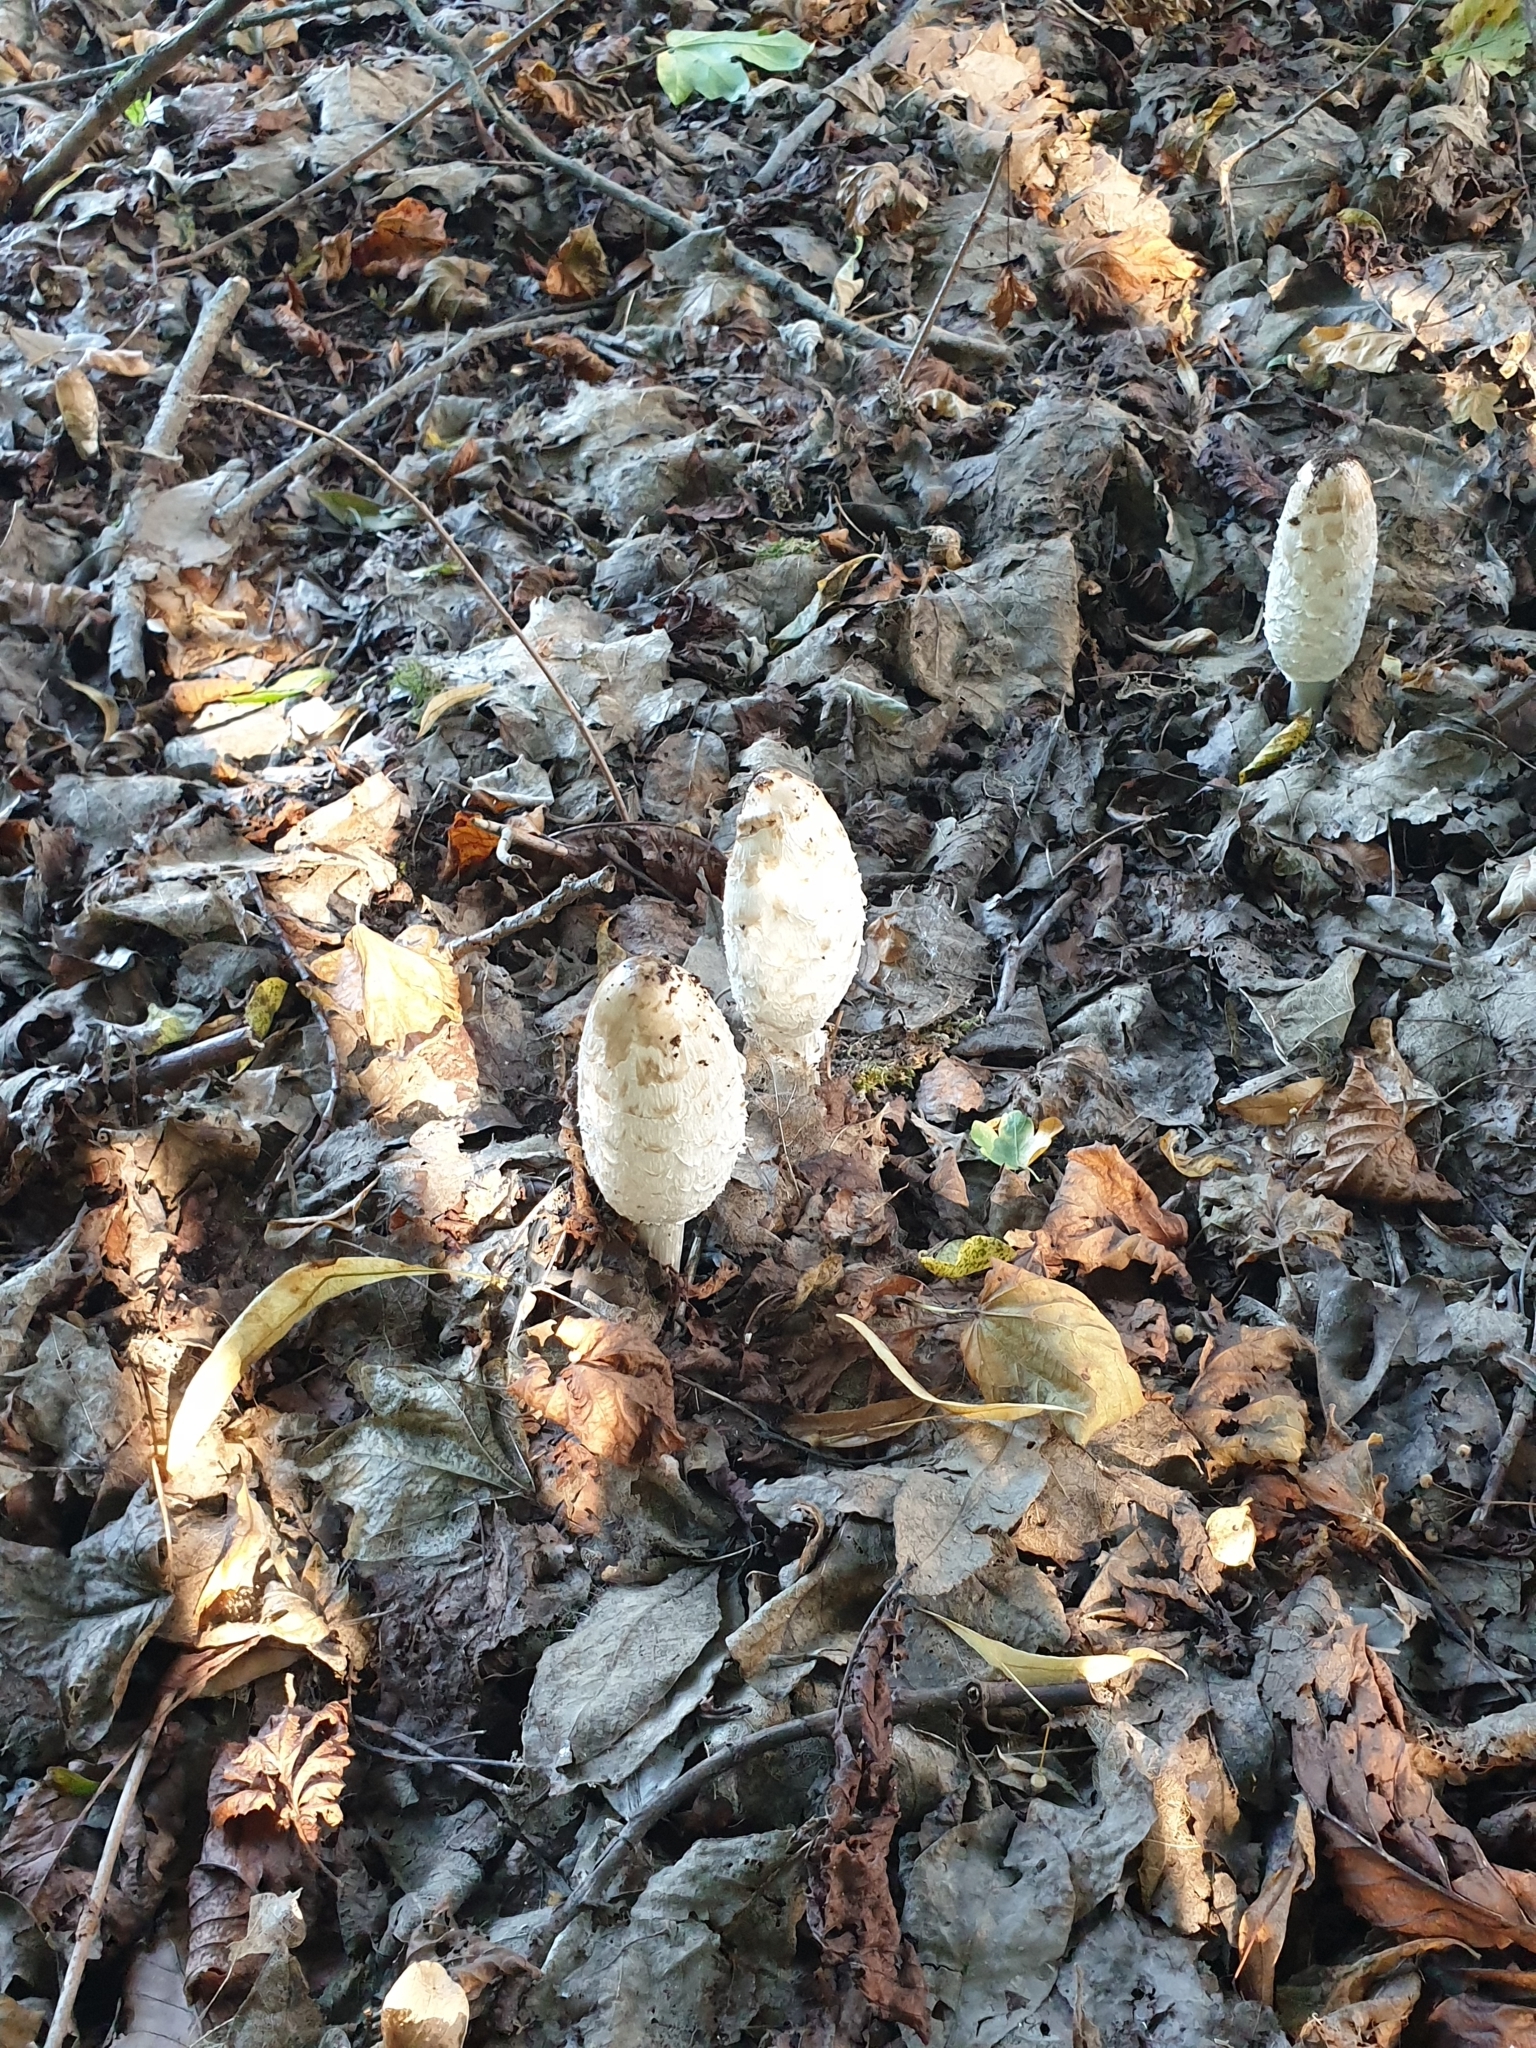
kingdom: Fungi
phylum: Basidiomycota
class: Agaricomycetes
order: Agaricales
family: Agaricaceae
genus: Coprinus
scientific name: Coprinus comatus
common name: Lawyer's wig
